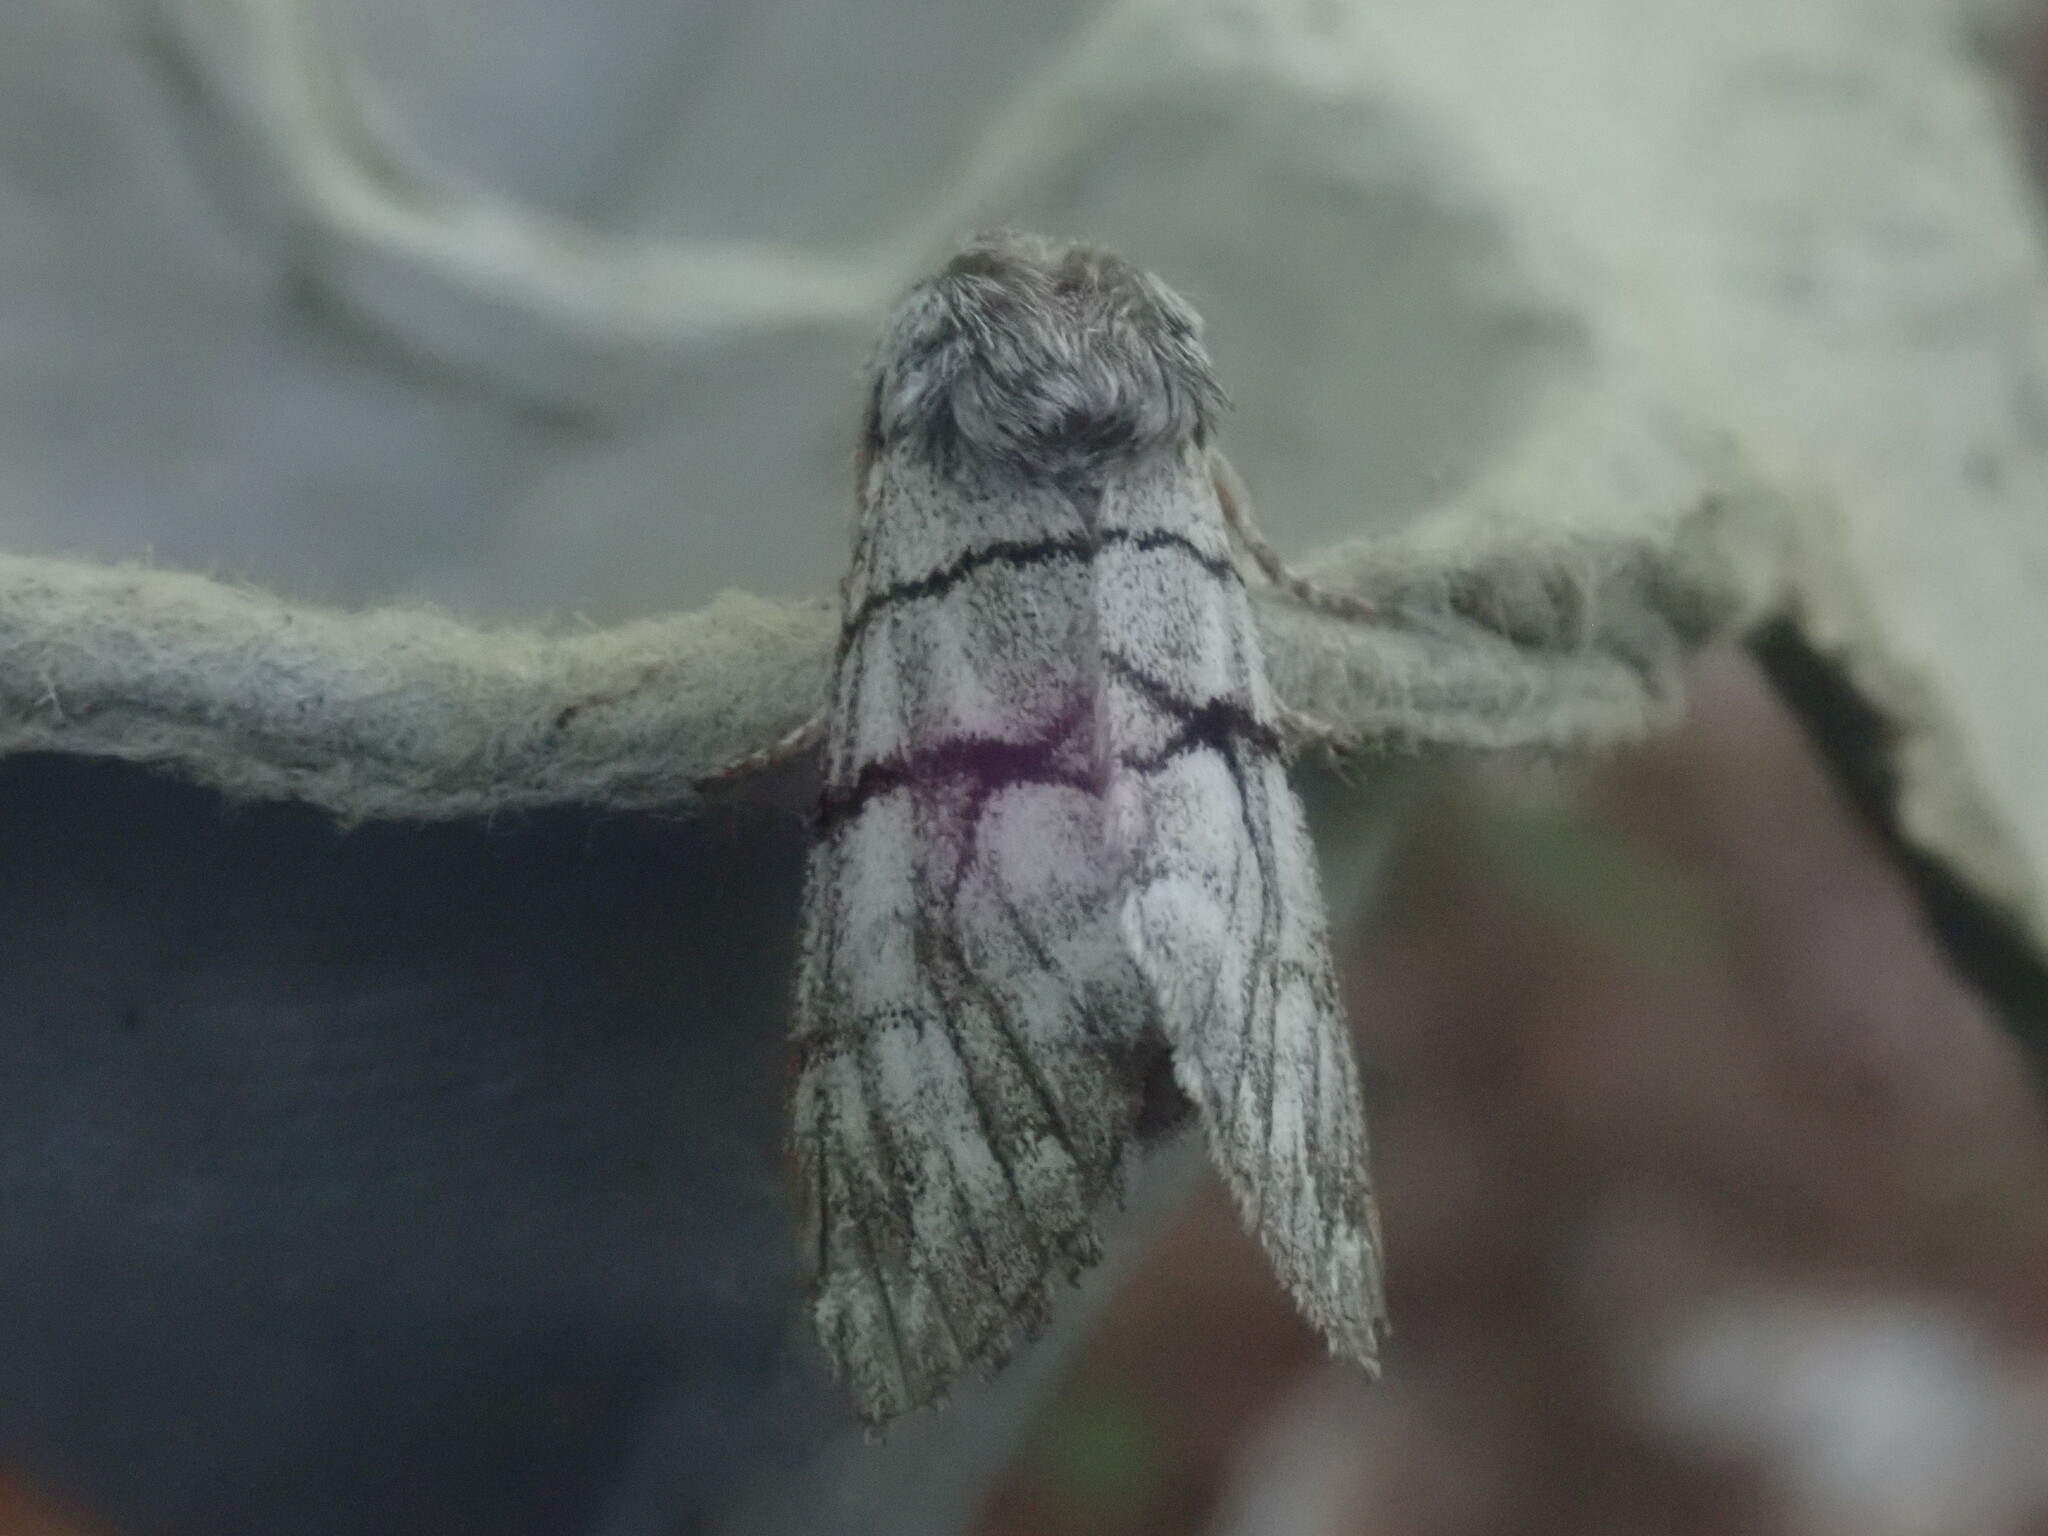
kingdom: Animalia
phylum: Arthropoda
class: Insecta
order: Lepidoptera
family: Noctuidae
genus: Panthea
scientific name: Panthea furcilla
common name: Eastern panthea moth
